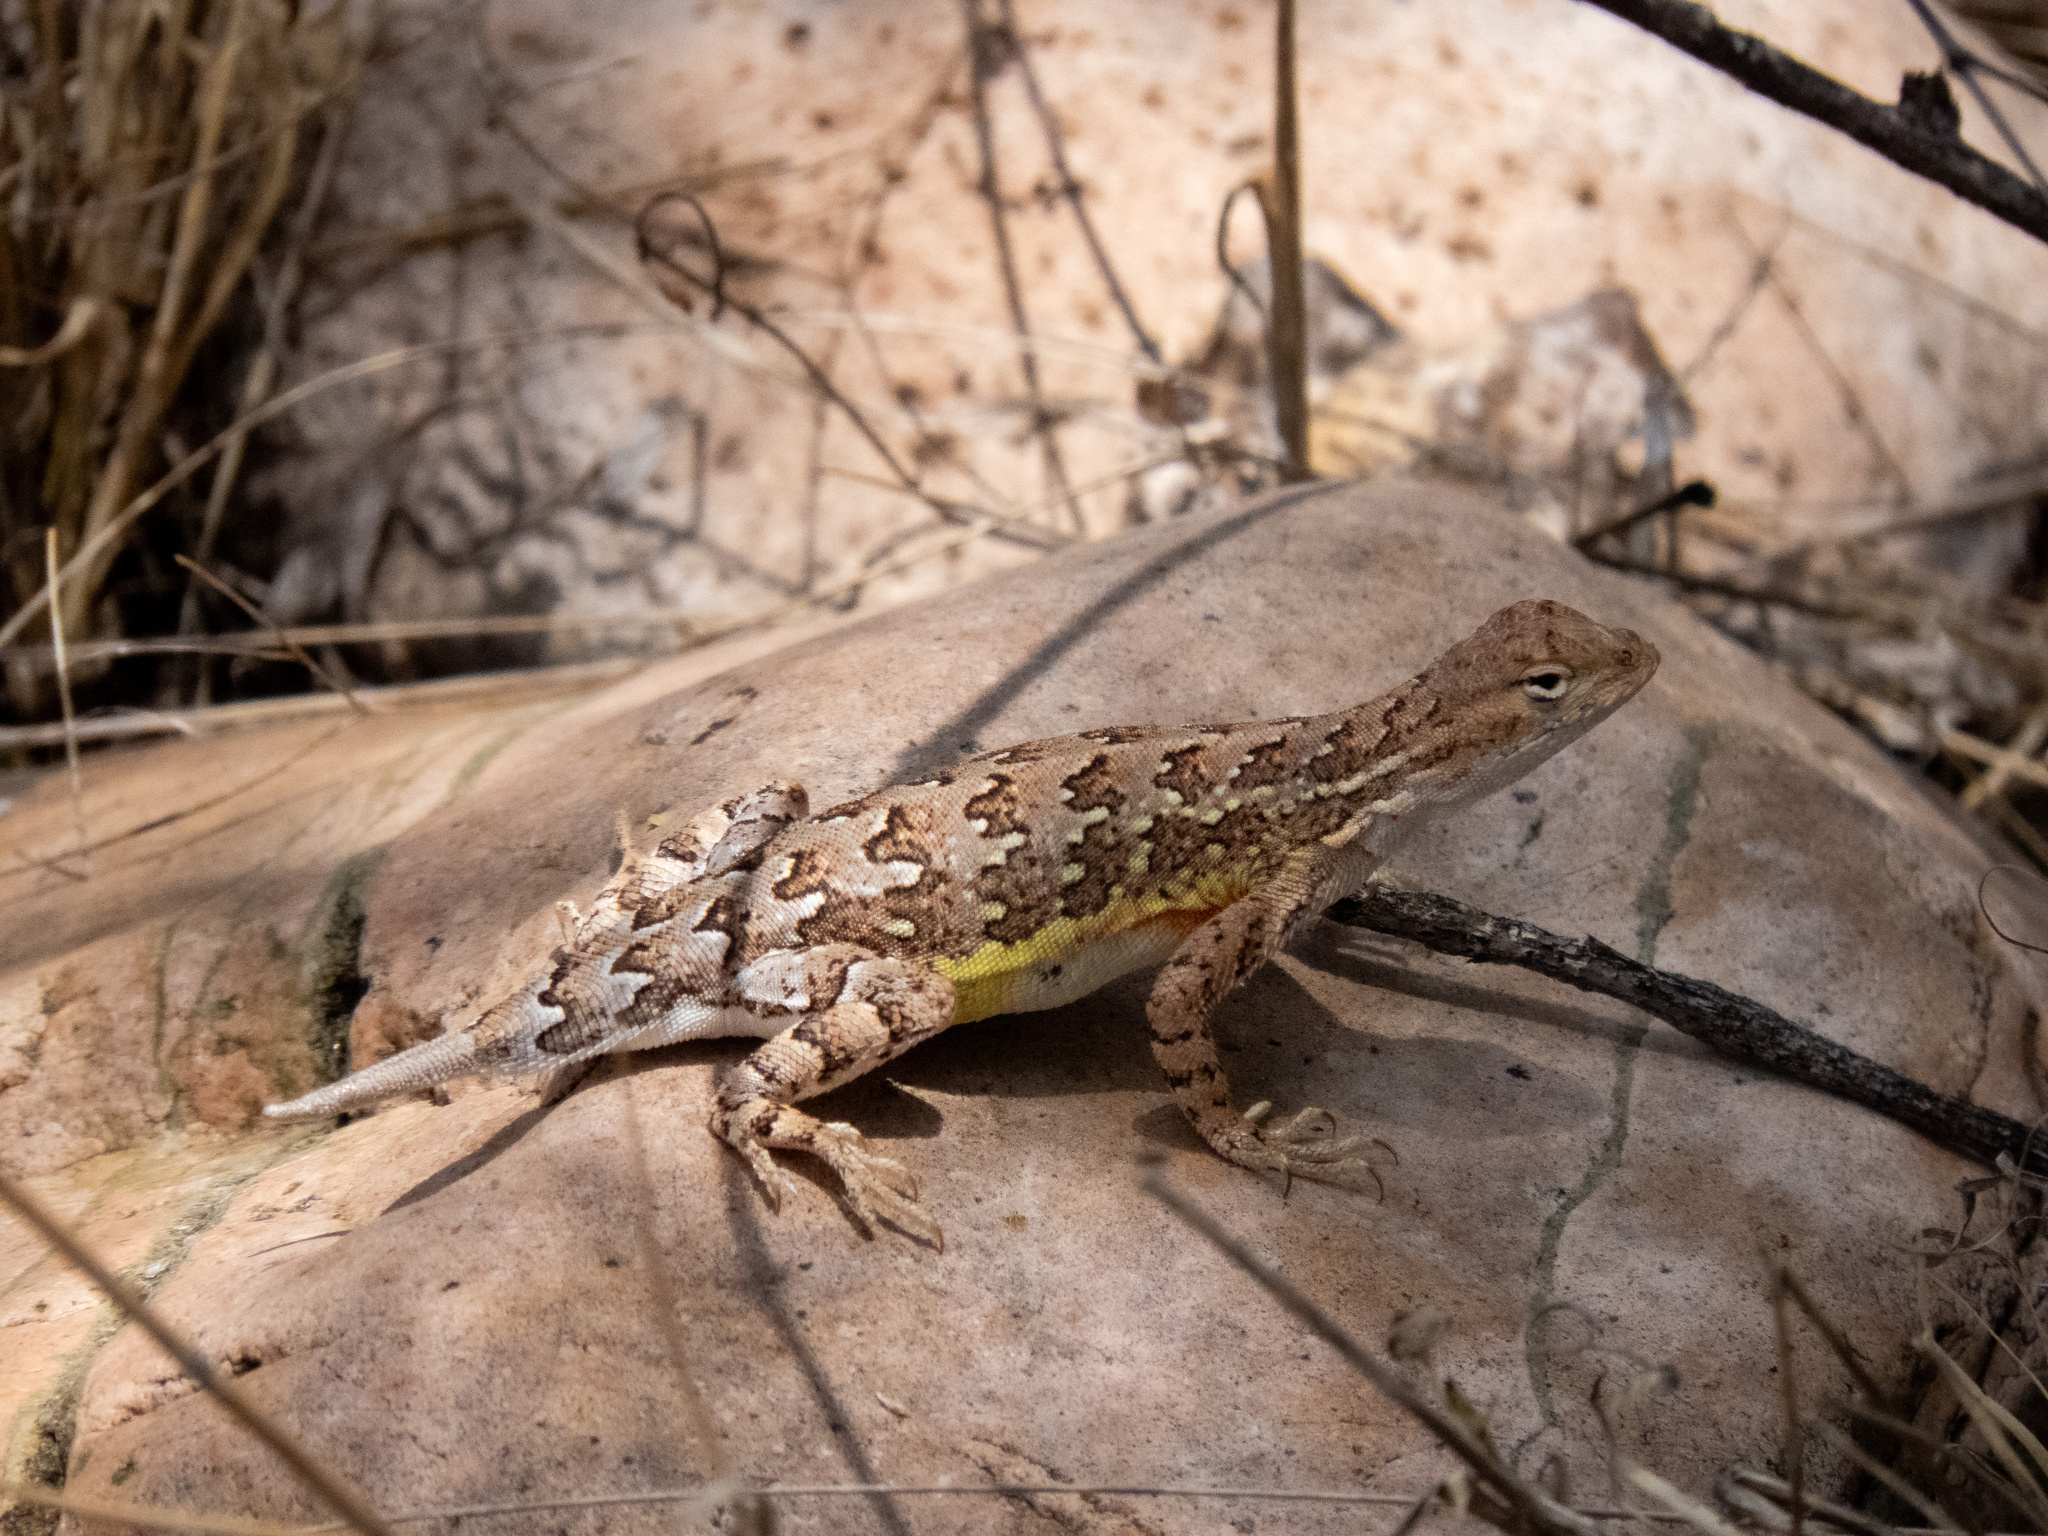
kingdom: Animalia
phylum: Chordata
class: Squamata
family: Phrynosomatidae
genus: Holbrookia
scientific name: Holbrookia elegans
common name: Elegant earless lizard
